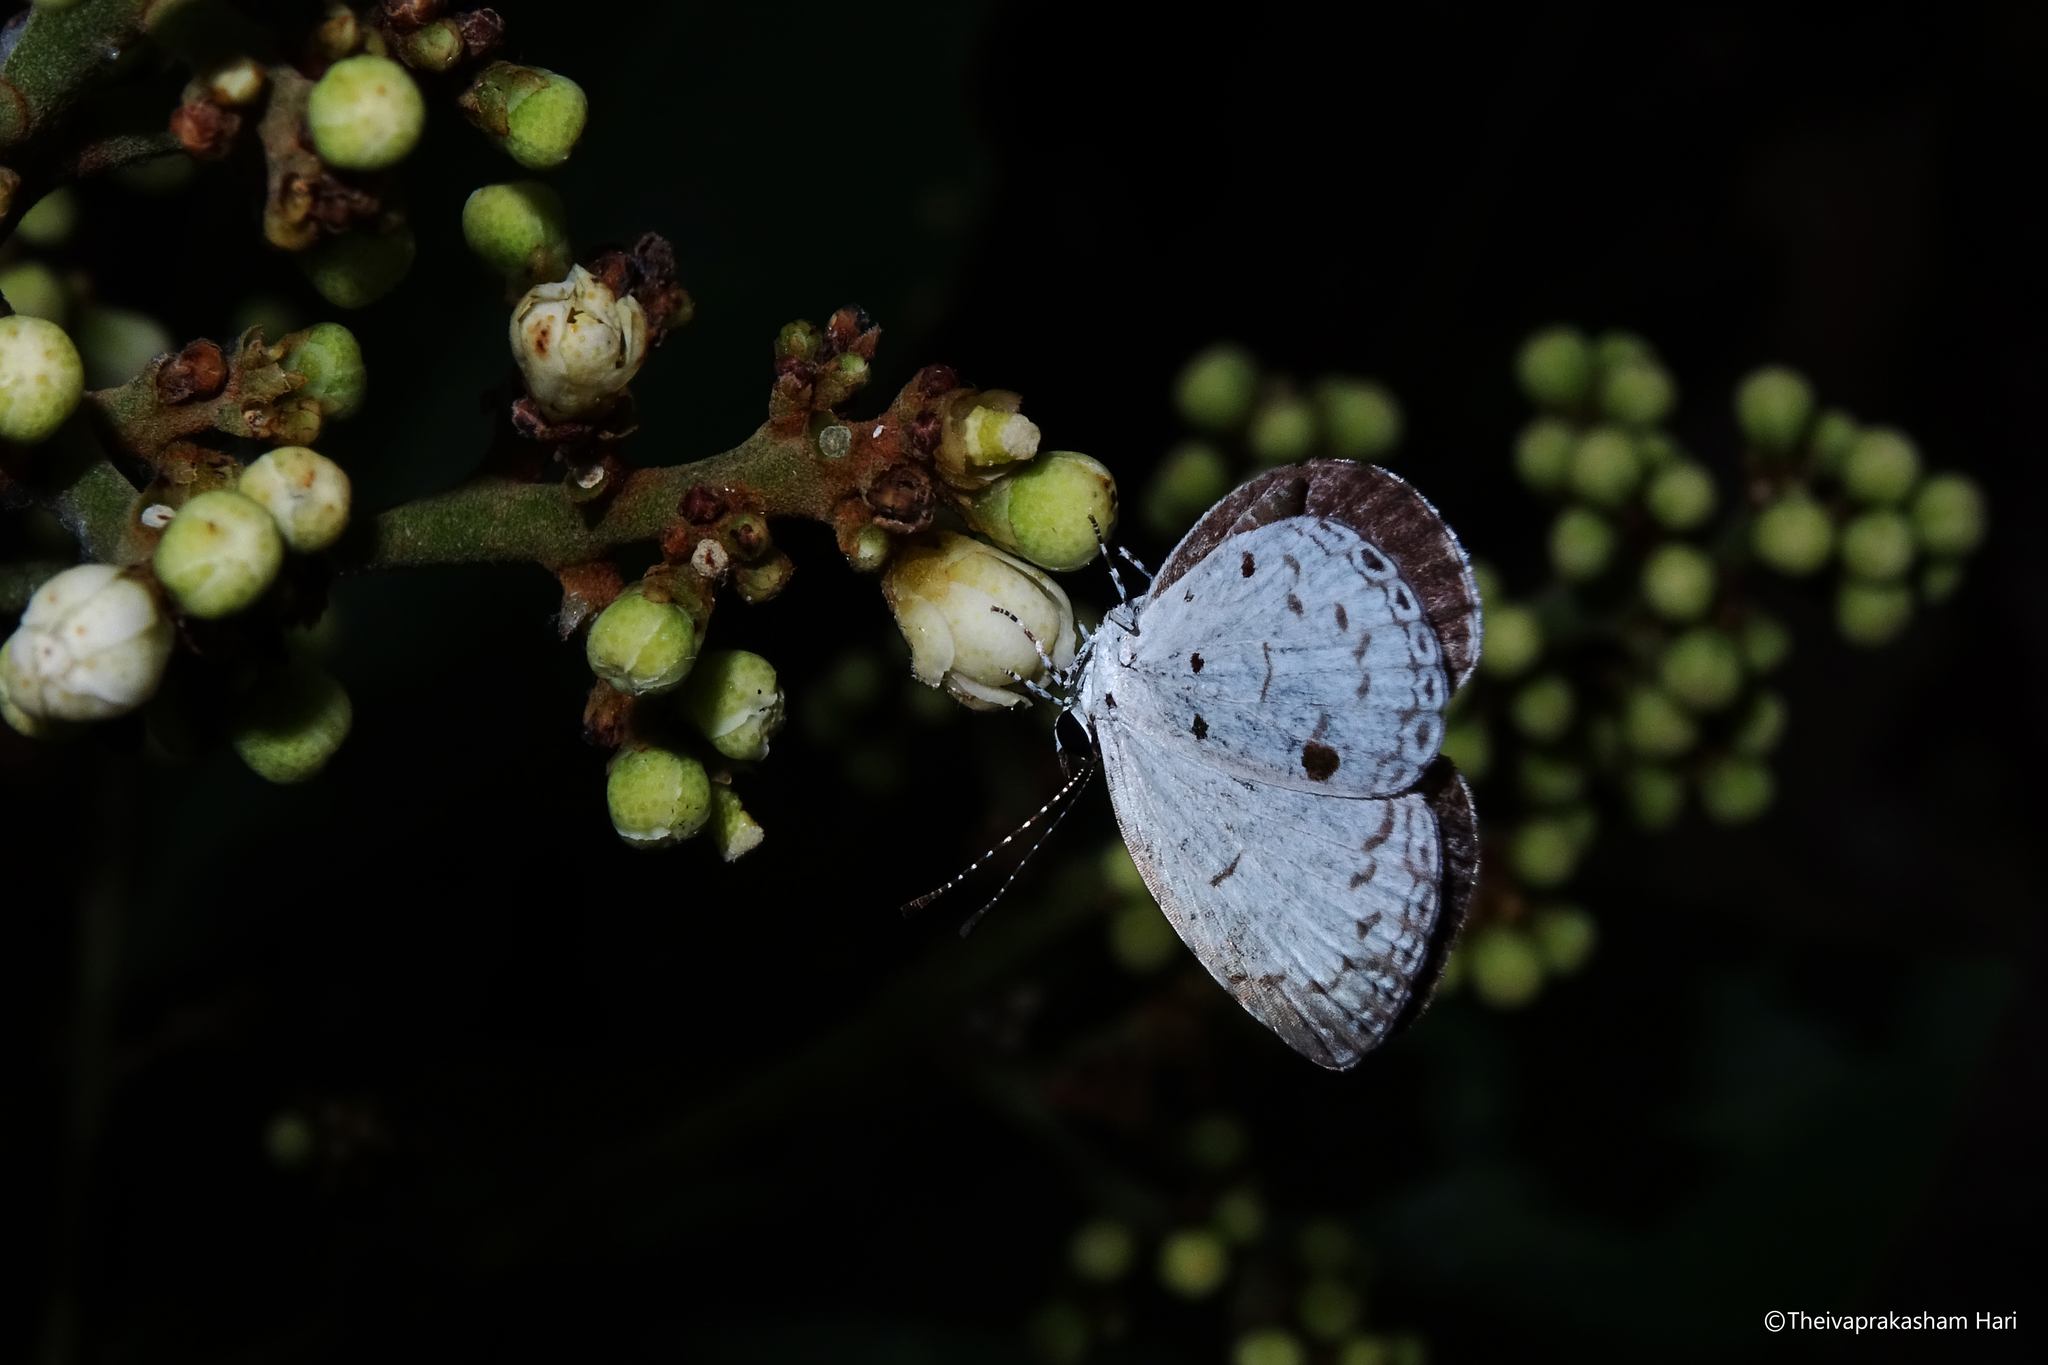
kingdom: Animalia
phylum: Arthropoda
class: Insecta
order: Lepidoptera
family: Lycaenidae
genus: Neopithecops
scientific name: Neopithecops zalmora
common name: Quaker
